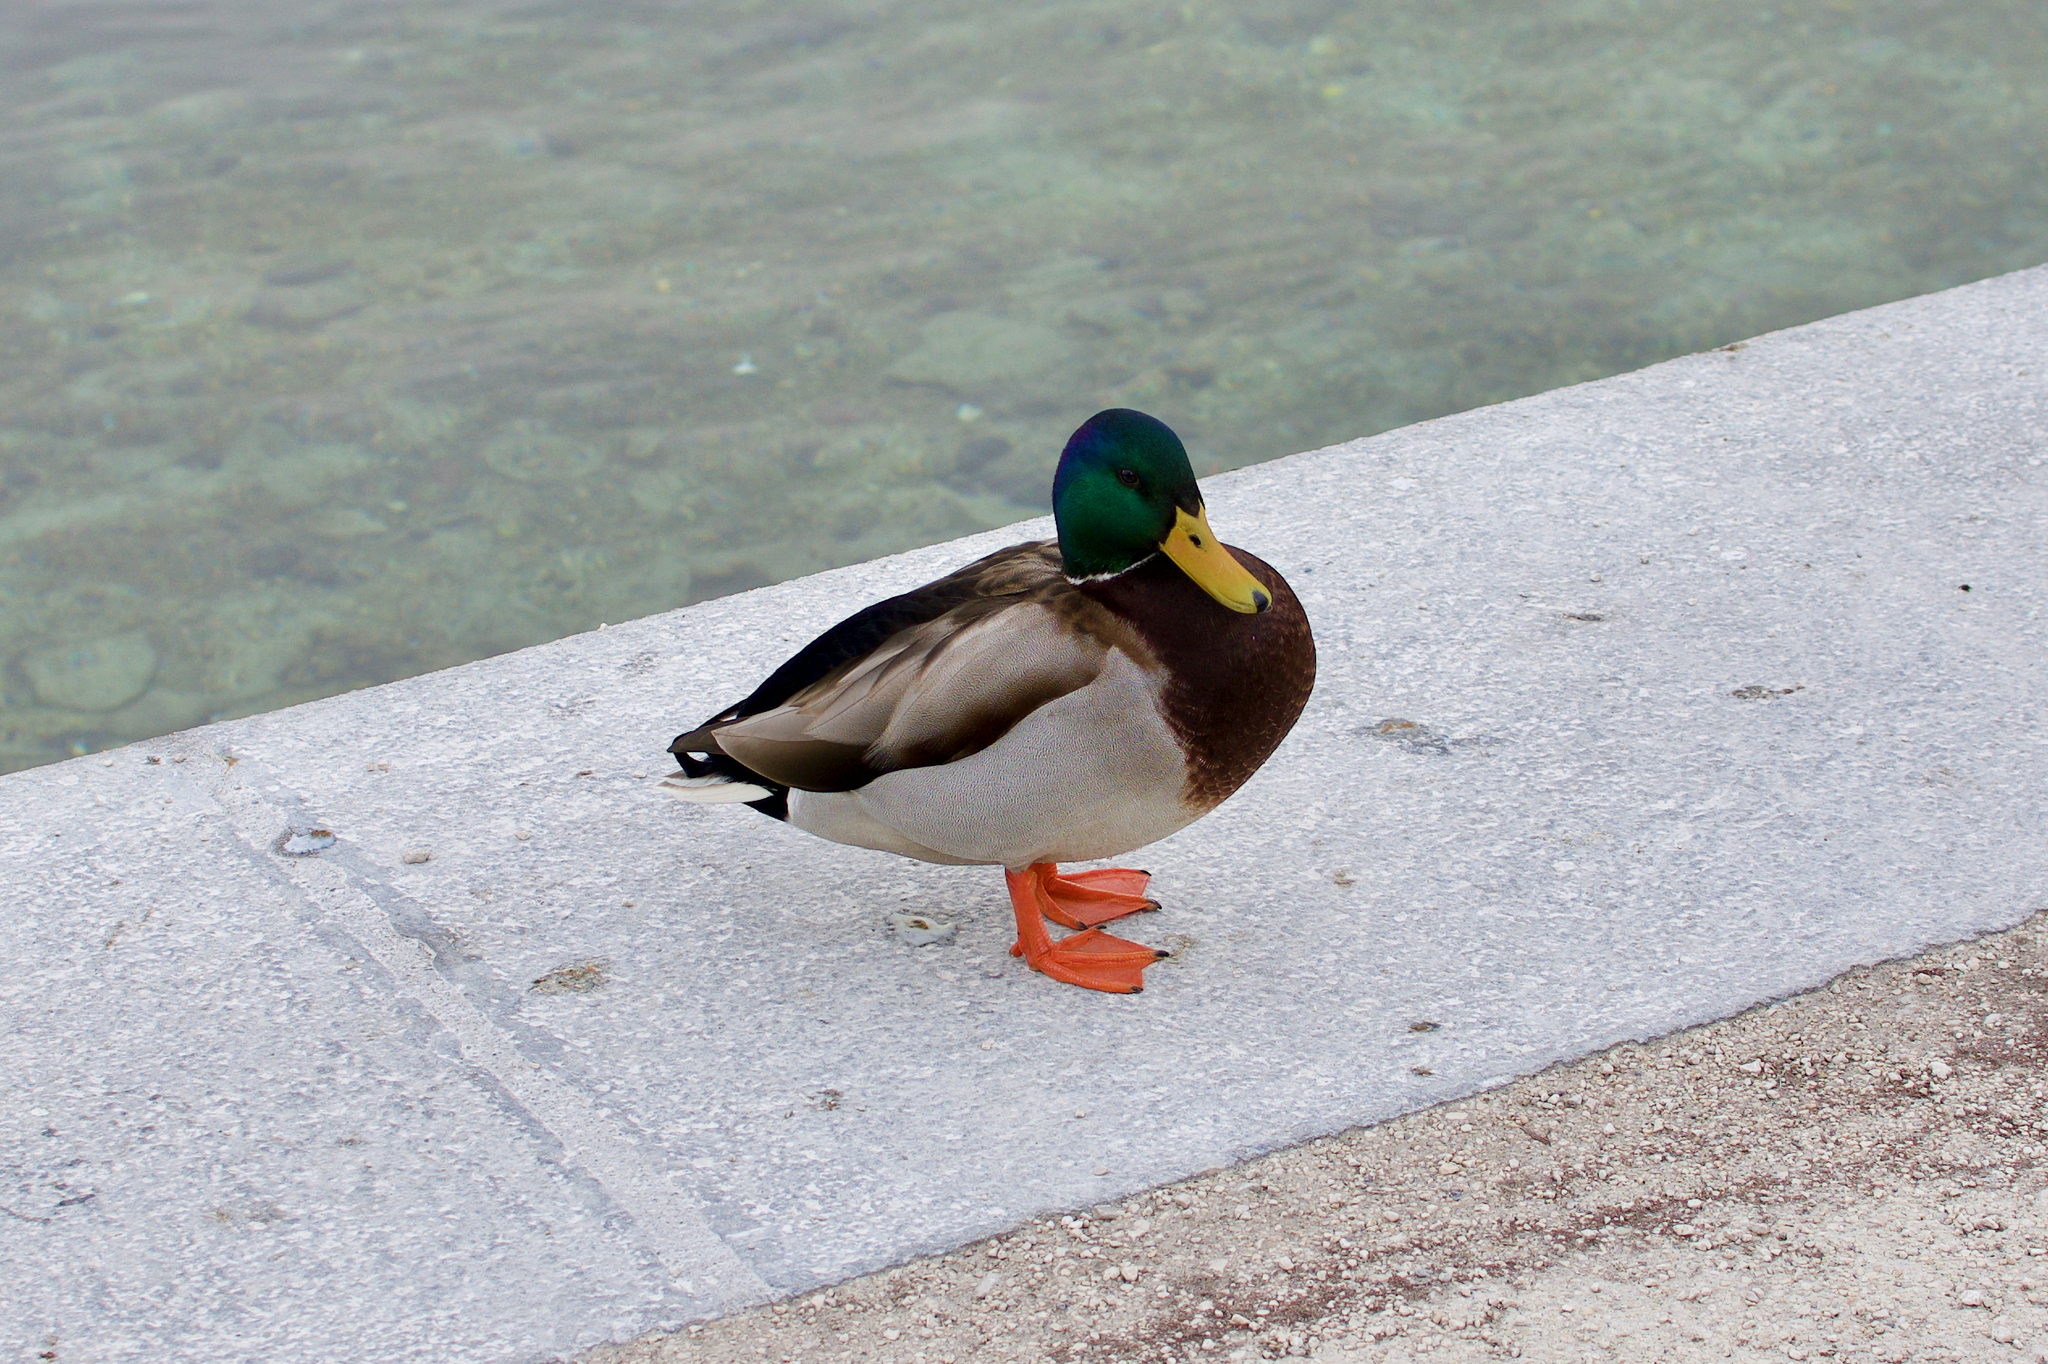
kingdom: Animalia
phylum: Chordata
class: Aves
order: Anseriformes
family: Anatidae
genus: Anas
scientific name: Anas platyrhynchos
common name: Mallard
